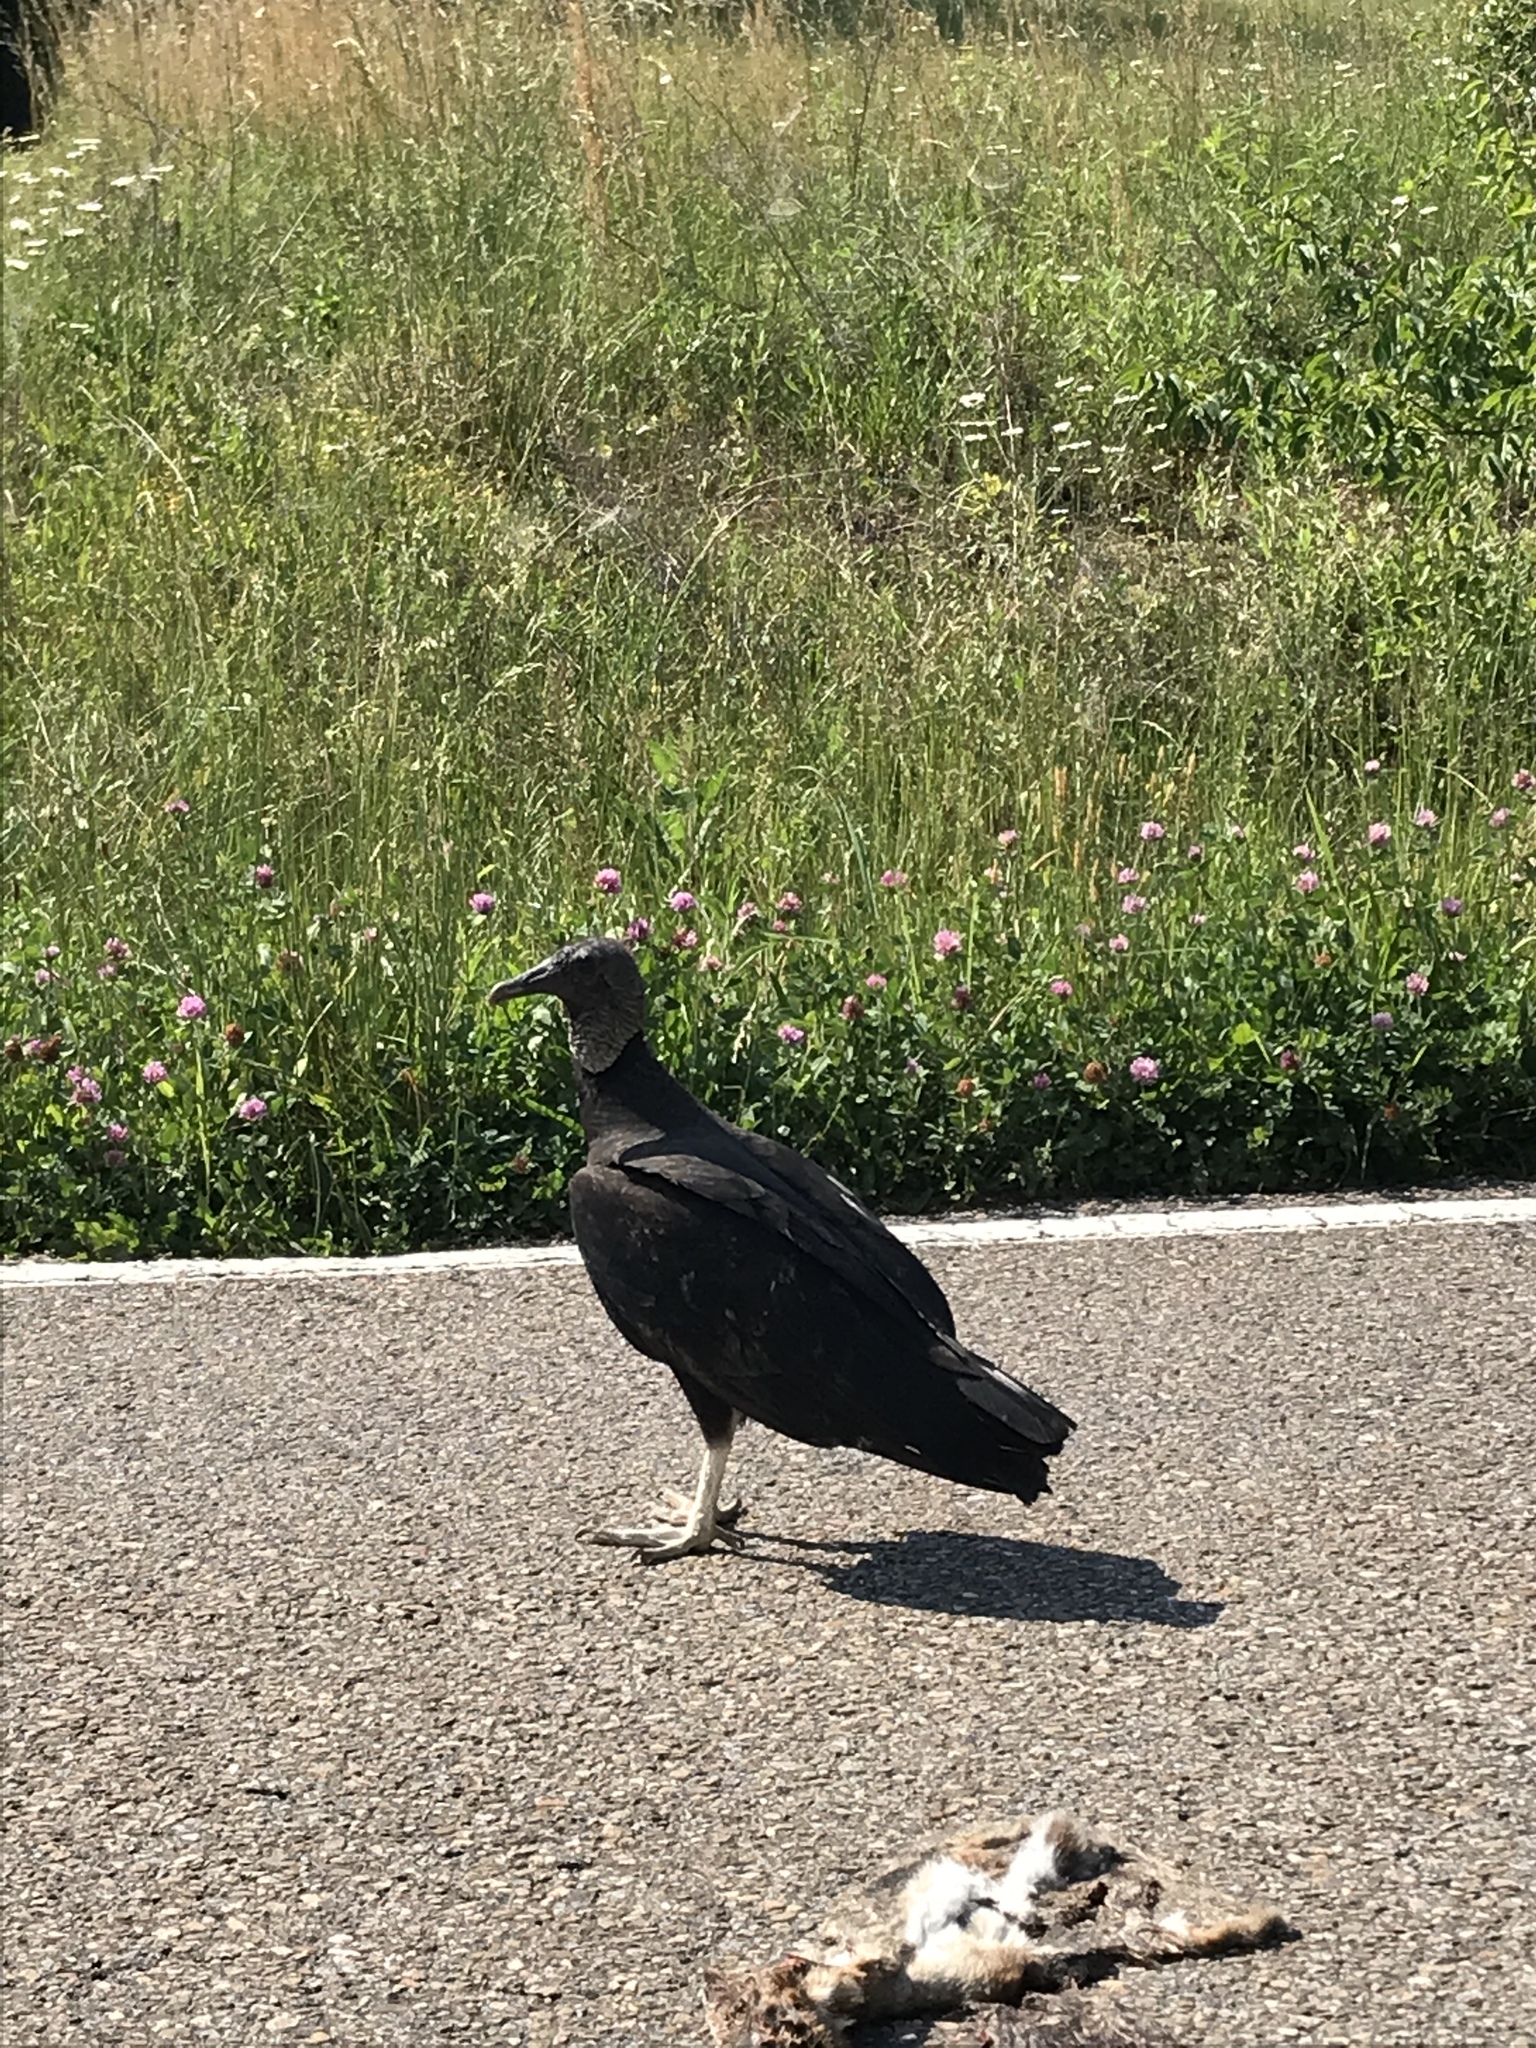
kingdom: Animalia
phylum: Chordata
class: Aves
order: Accipitriformes
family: Cathartidae
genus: Coragyps
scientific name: Coragyps atratus
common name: Black vulture
